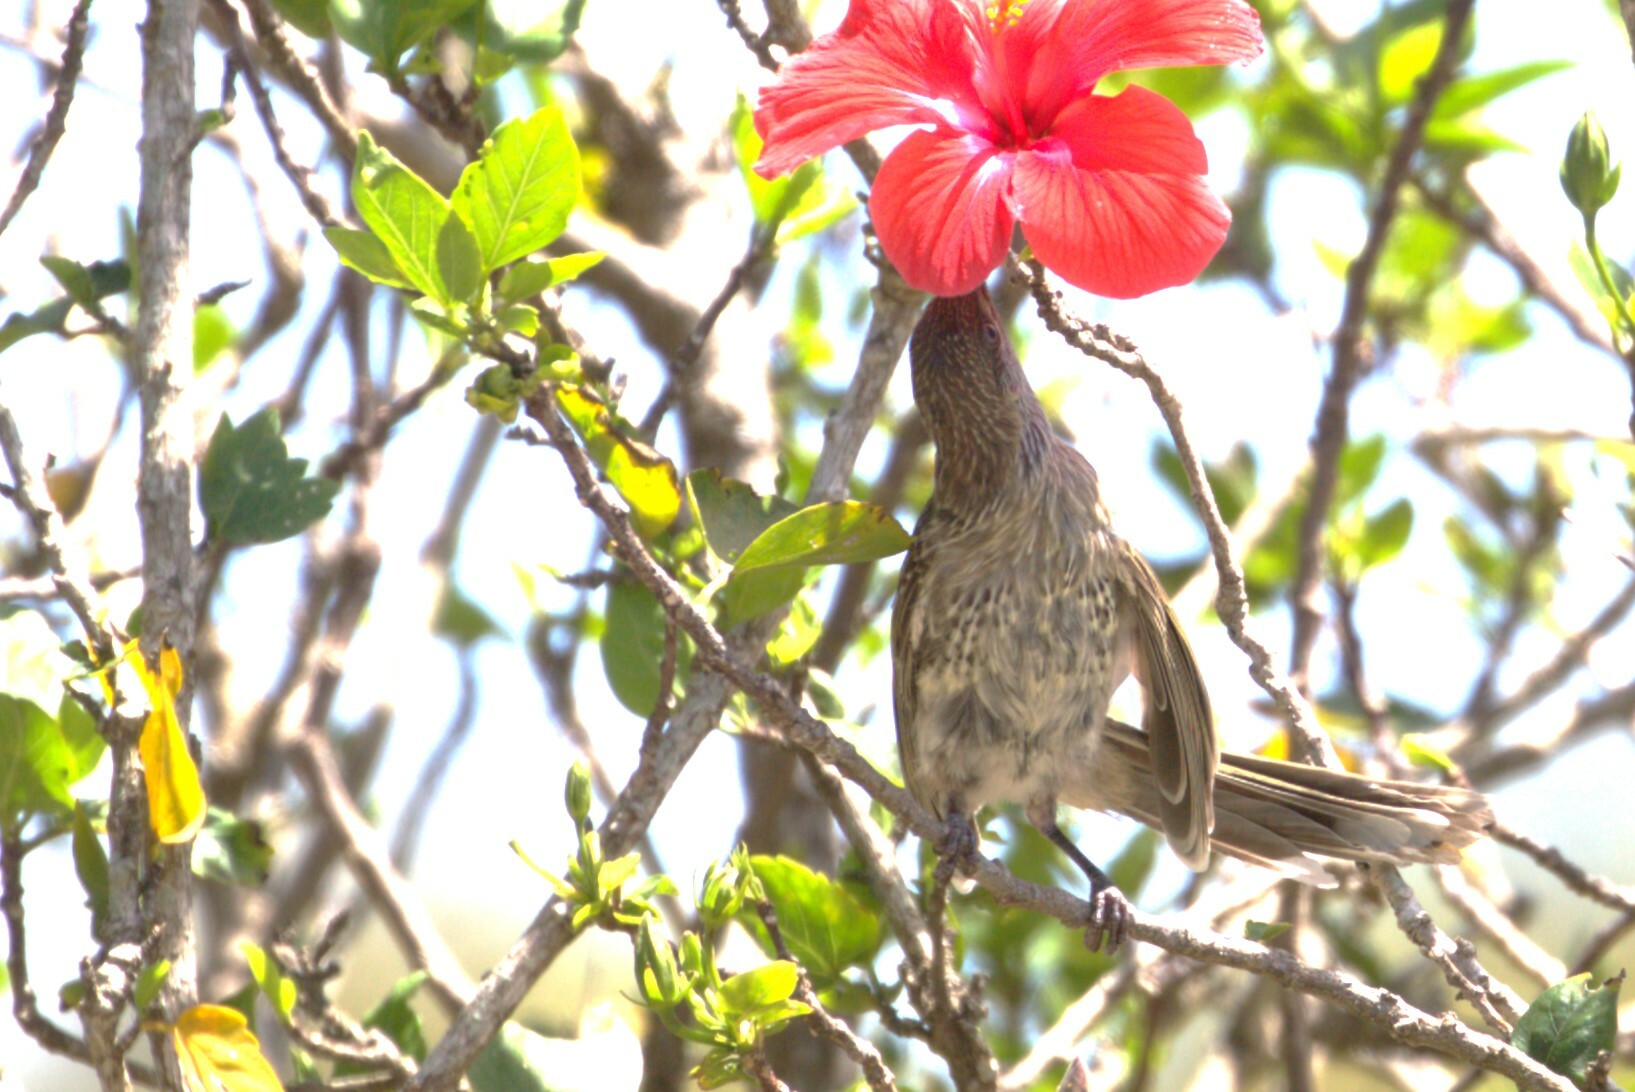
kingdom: Animalia
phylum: Chordata
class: Aves
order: Passeriformes
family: Meliphagidae
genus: Anthochaera
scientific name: Anthochaera chrysoptera
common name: Little wattlebird
